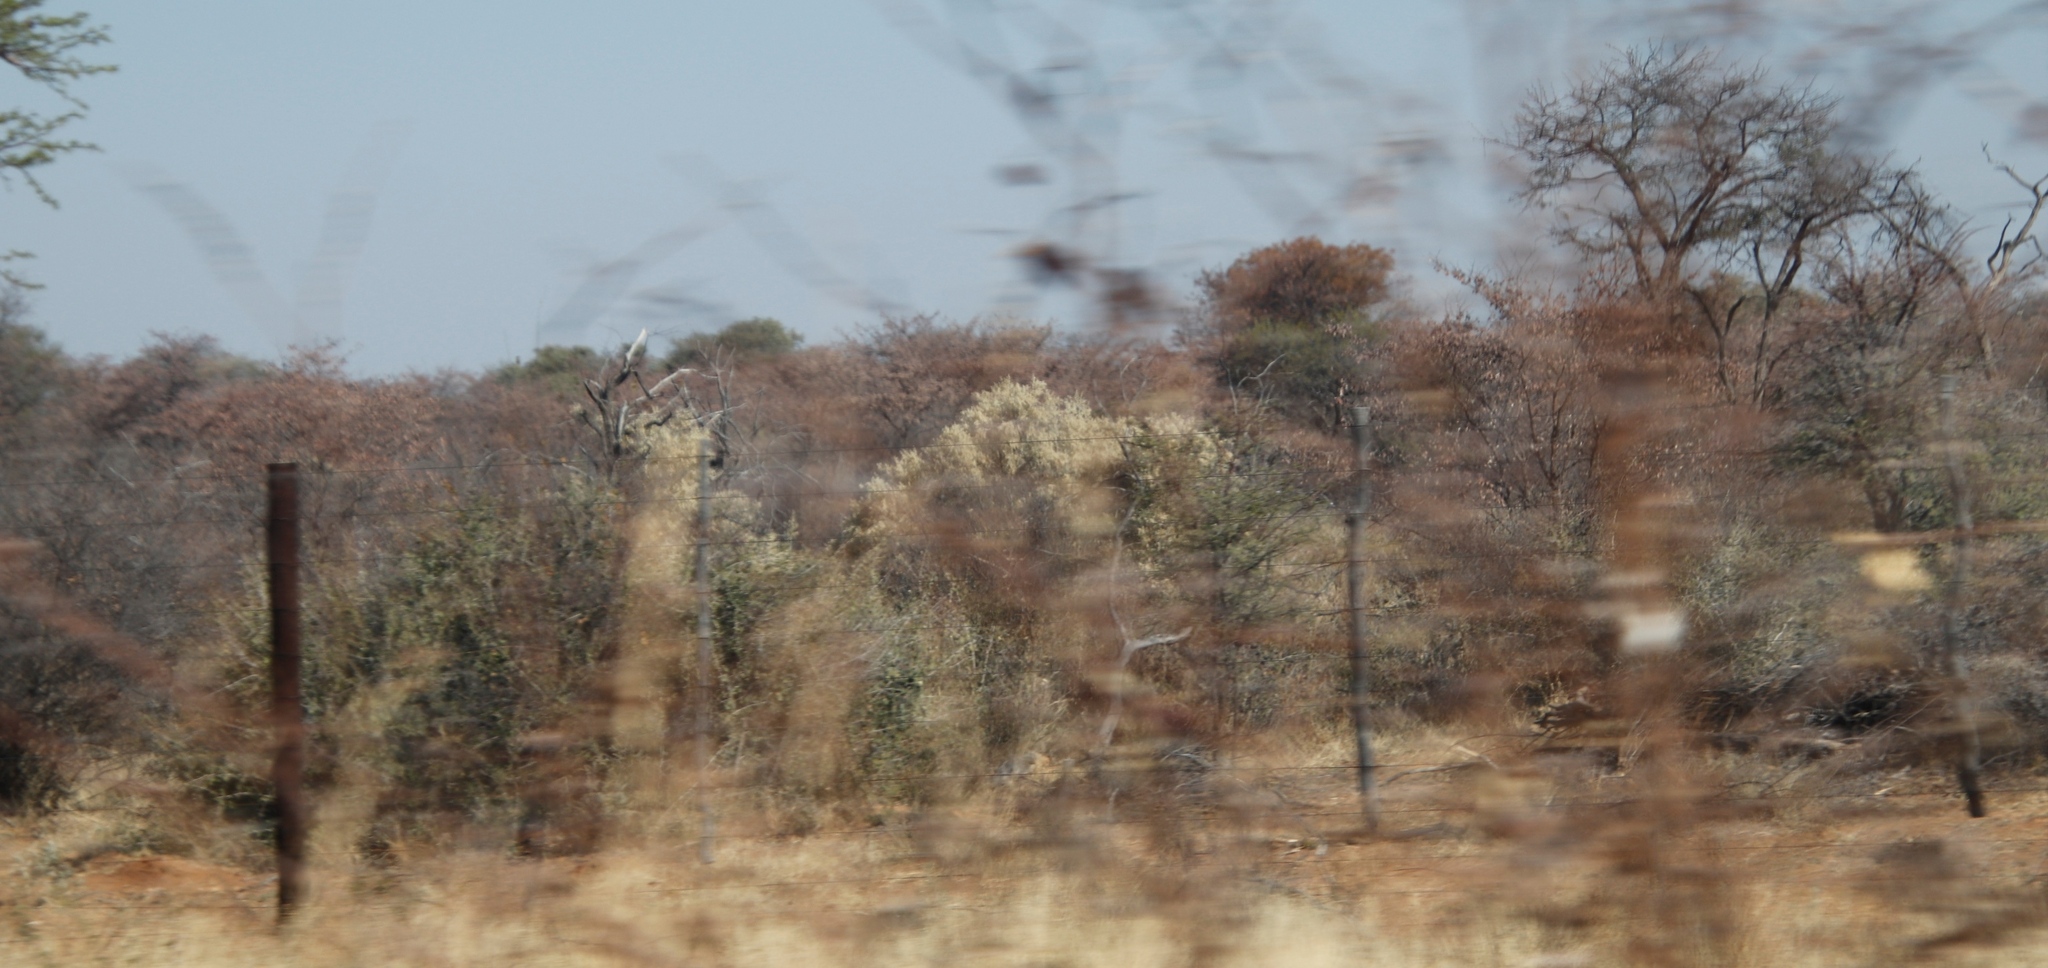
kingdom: Plantae
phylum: Tracheophyta
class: Magnoliopsida
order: Fabales
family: Fabaceae
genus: Senegalia
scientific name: Senegalia mellifera
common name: Hookthorn
